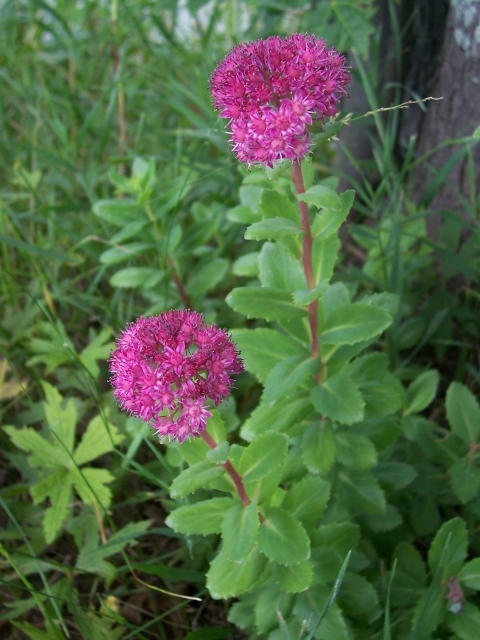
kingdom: Plantae
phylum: Tracheophyta
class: Magnoliopsida
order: Saxifragales
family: Crassulaceae
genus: Hylotelephium
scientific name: Hylotelephium telephium
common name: Live-forever
